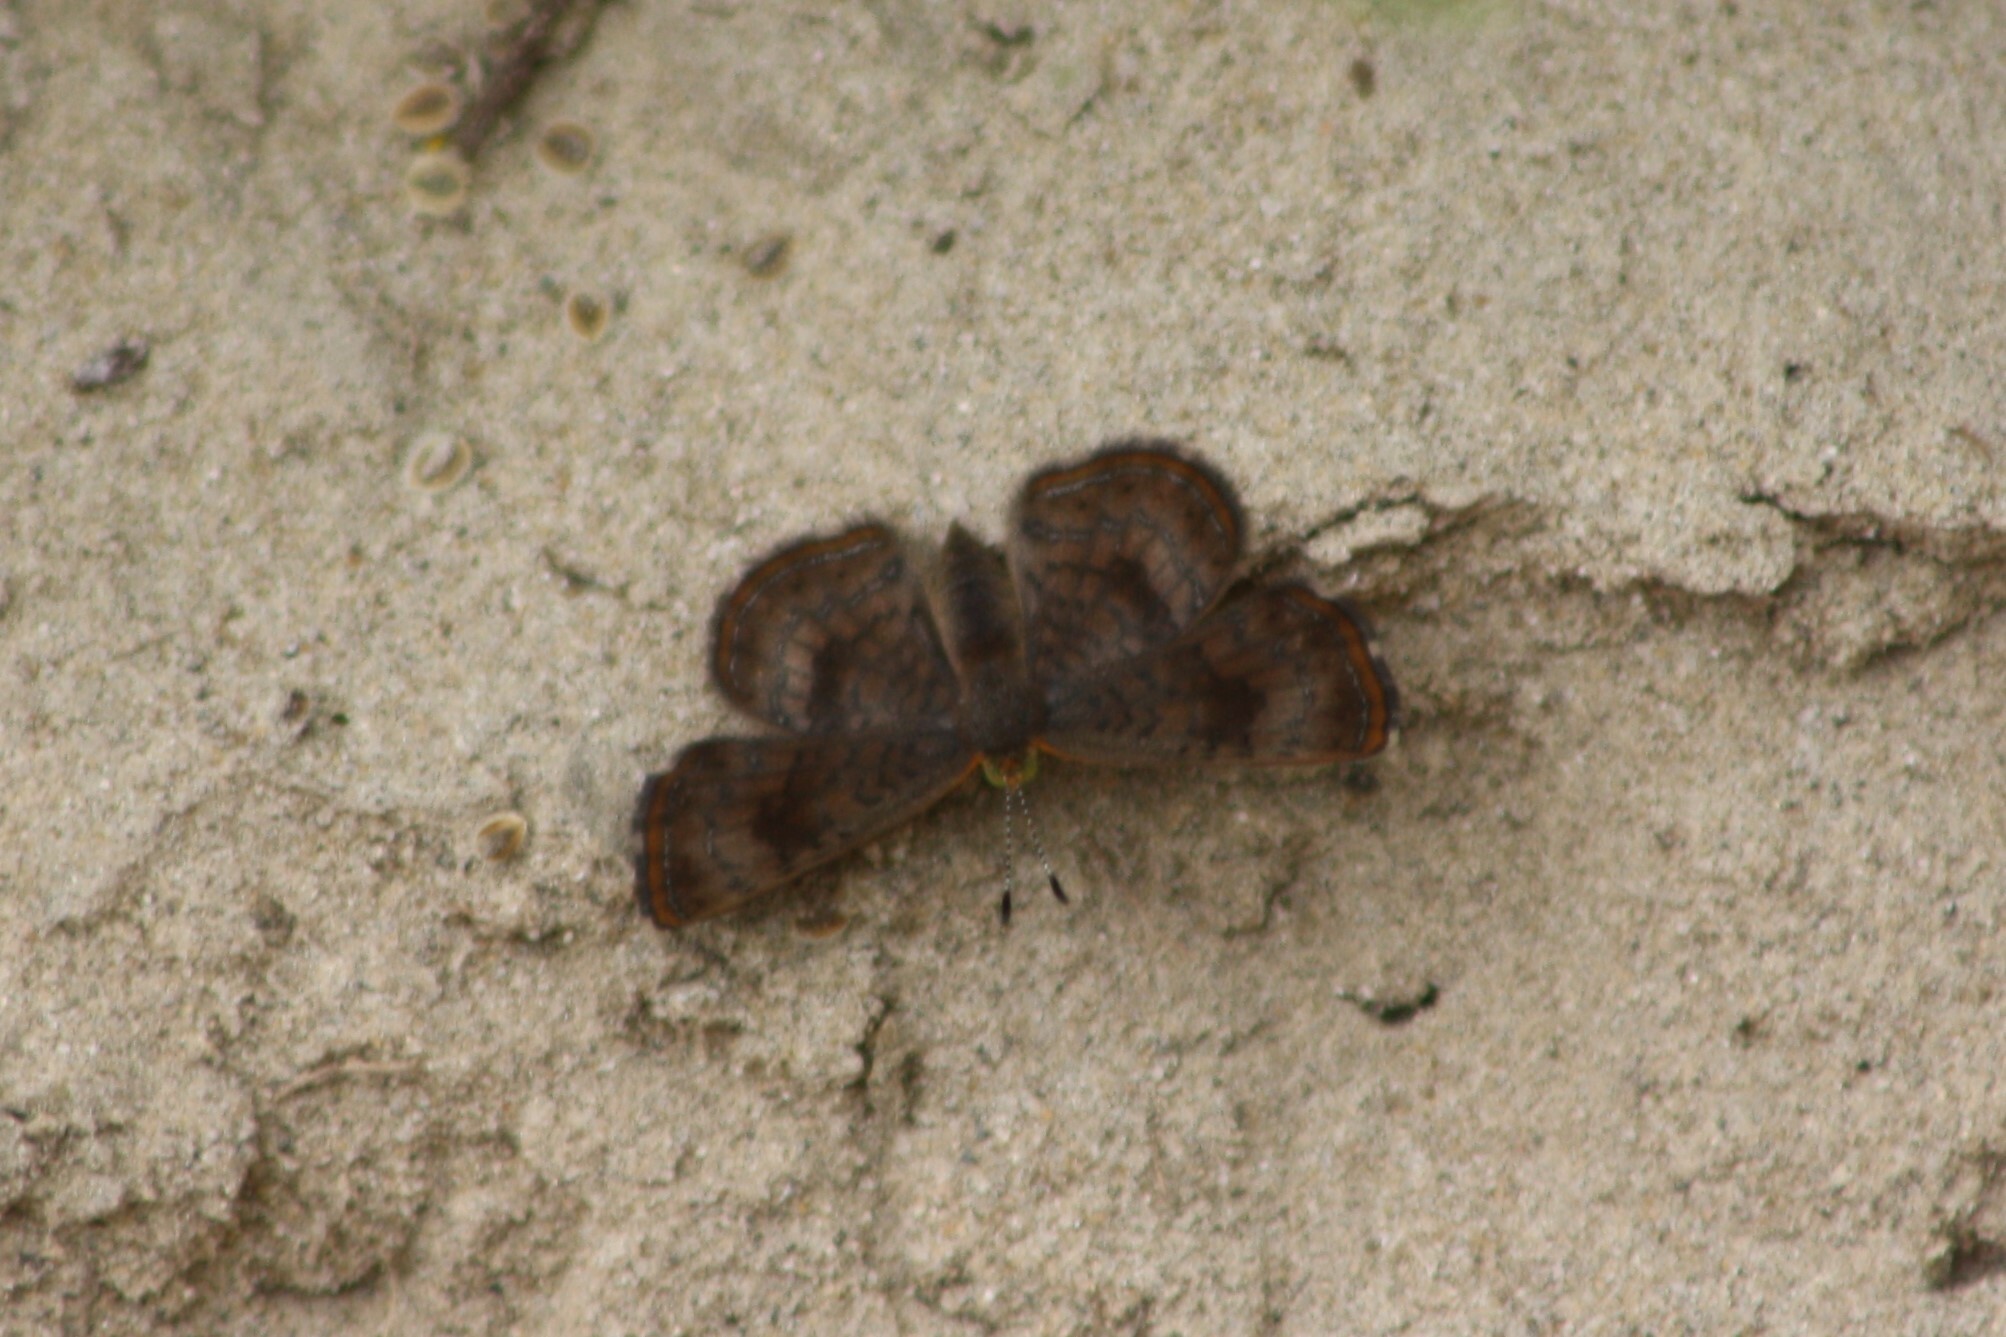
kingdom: Animalia
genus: Calephelis
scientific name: Calephelis nemesis
